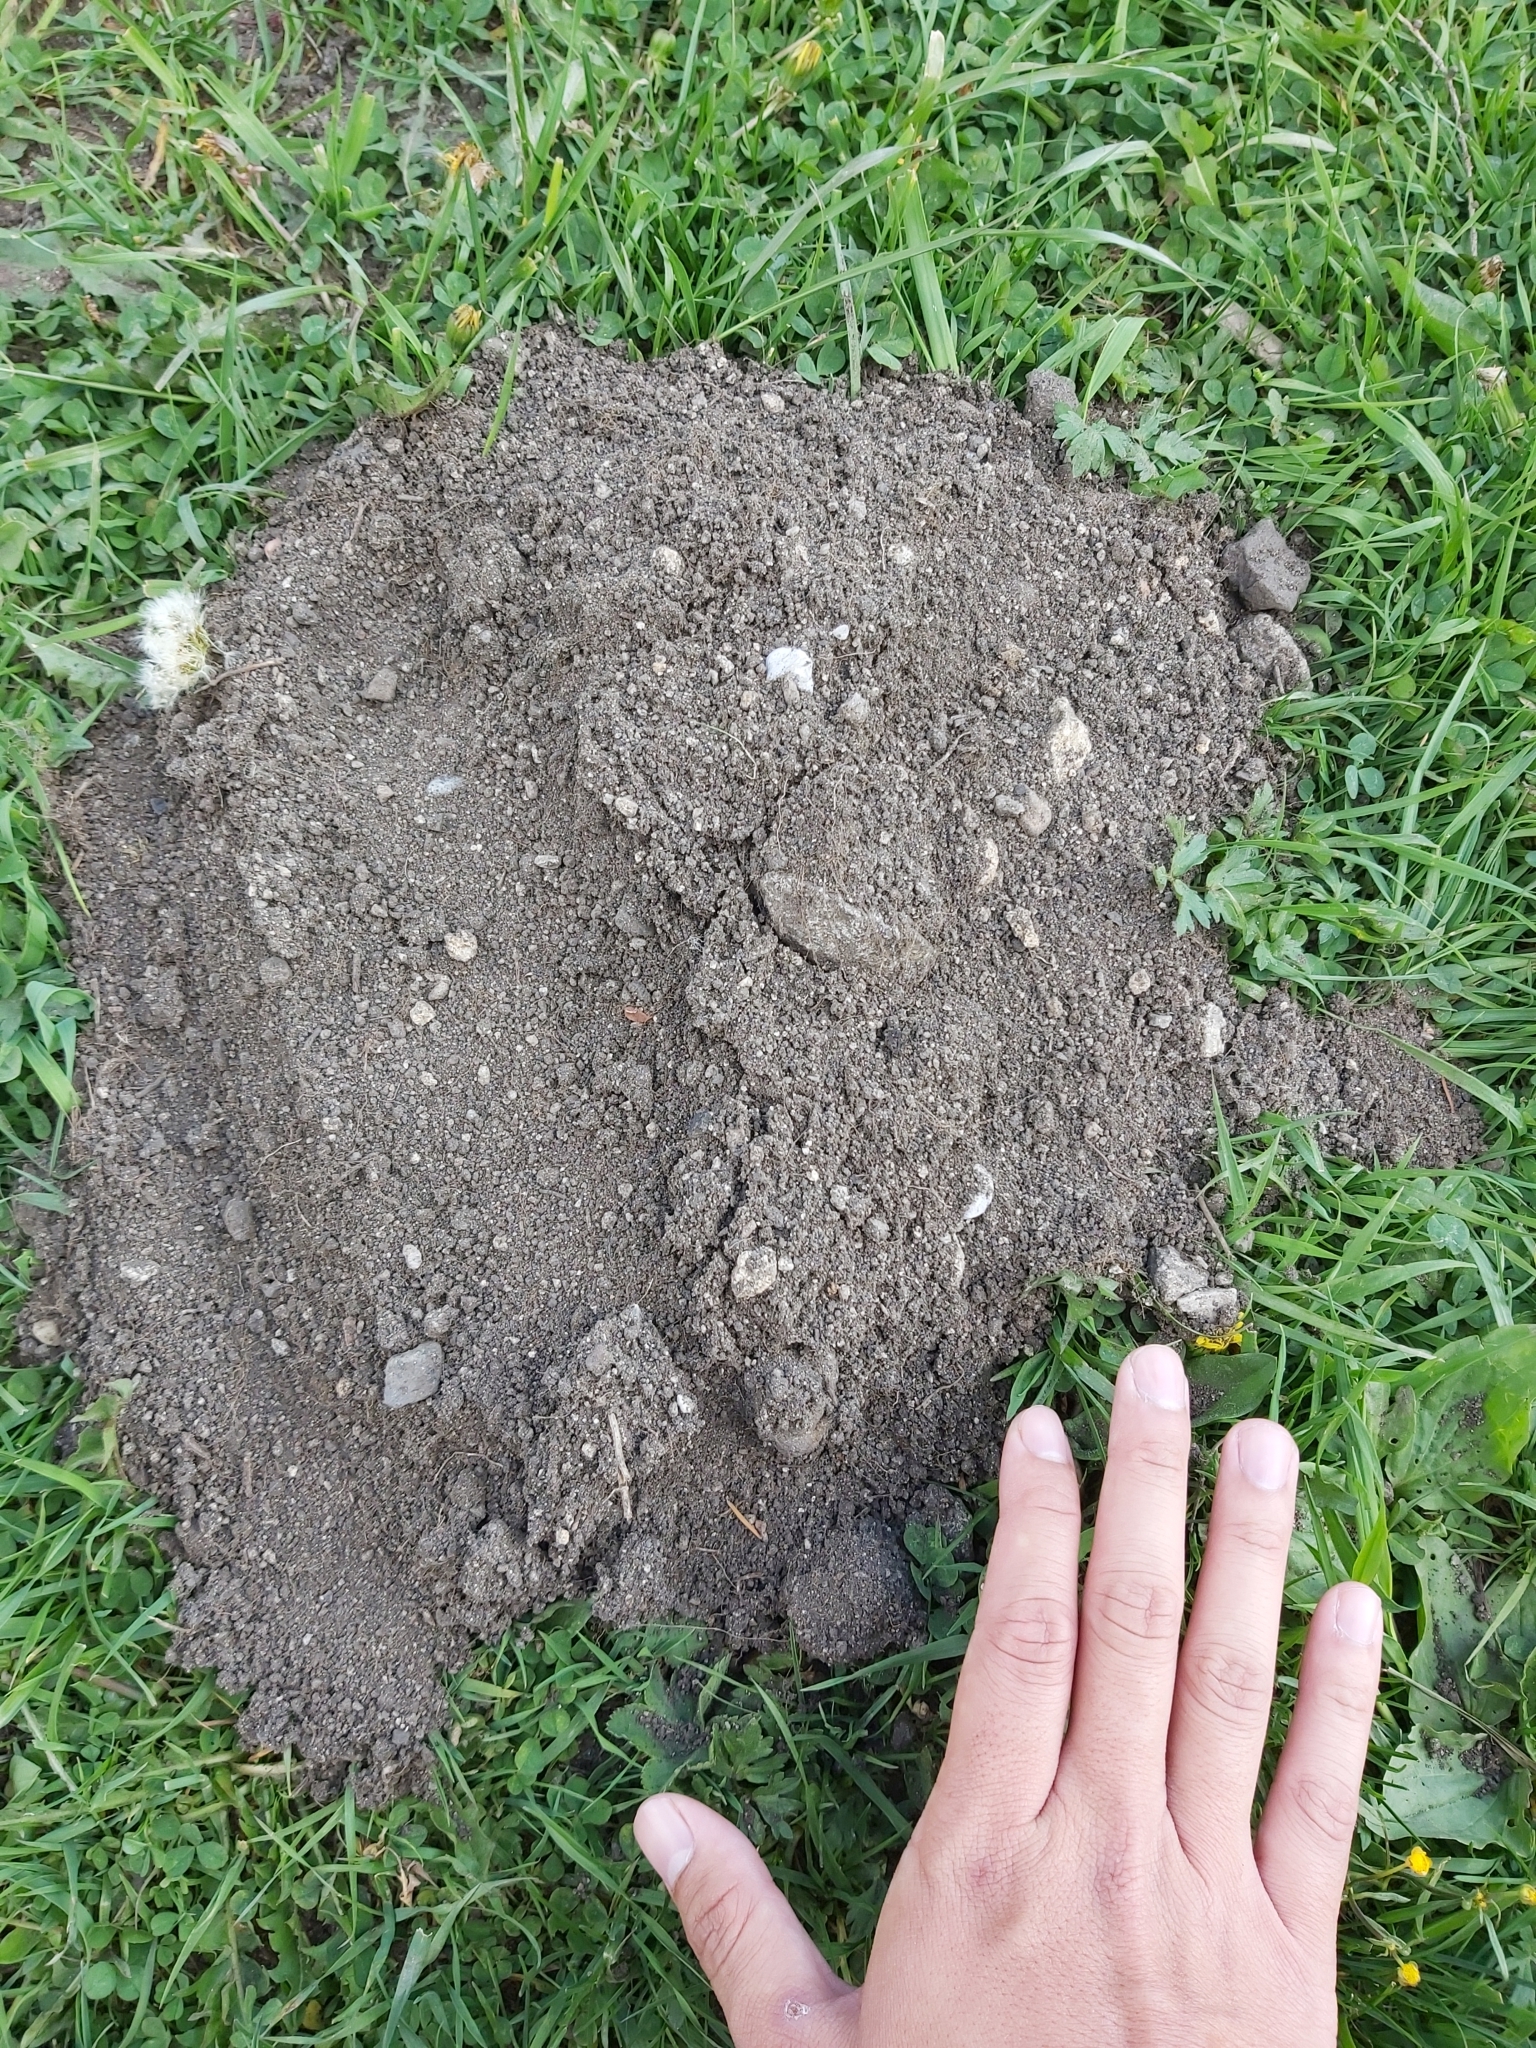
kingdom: Animalia
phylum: Chordata
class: Mammalia
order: Soricomorpha
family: Talpidae
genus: Talpa
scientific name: Talpa europaea
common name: European mole
